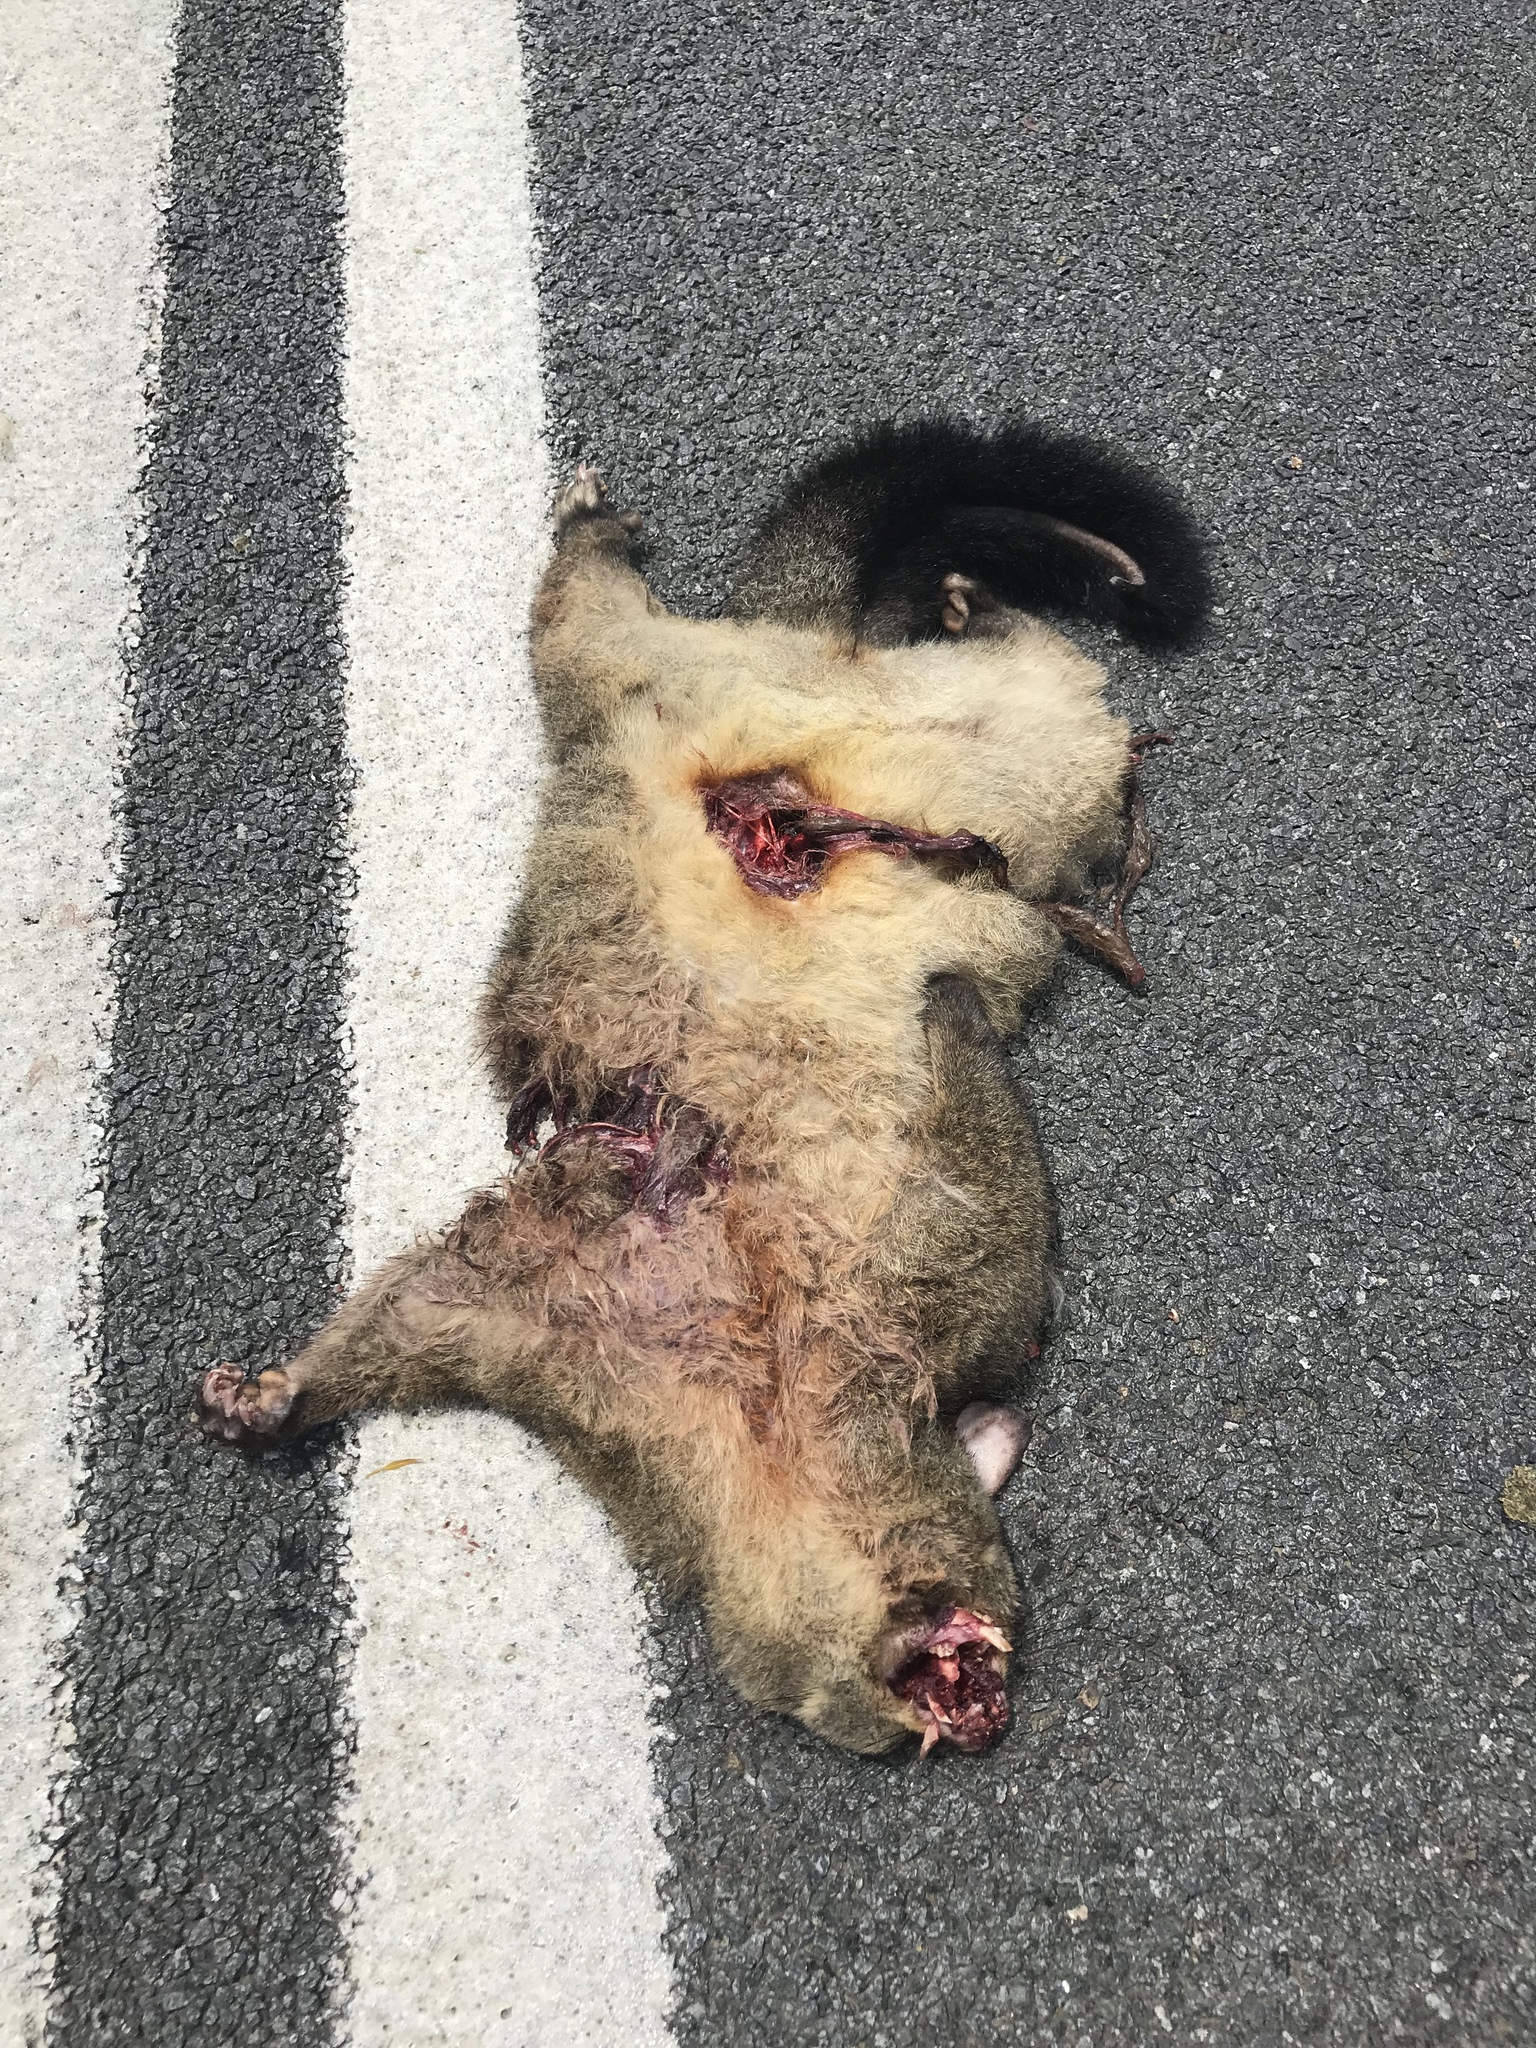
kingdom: Animalia
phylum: Chordata
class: Mammalia
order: Diprotodontia
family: Phalangeridae
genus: Trichosurus
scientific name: Trichosurus vulpecula
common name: Common brushtail
